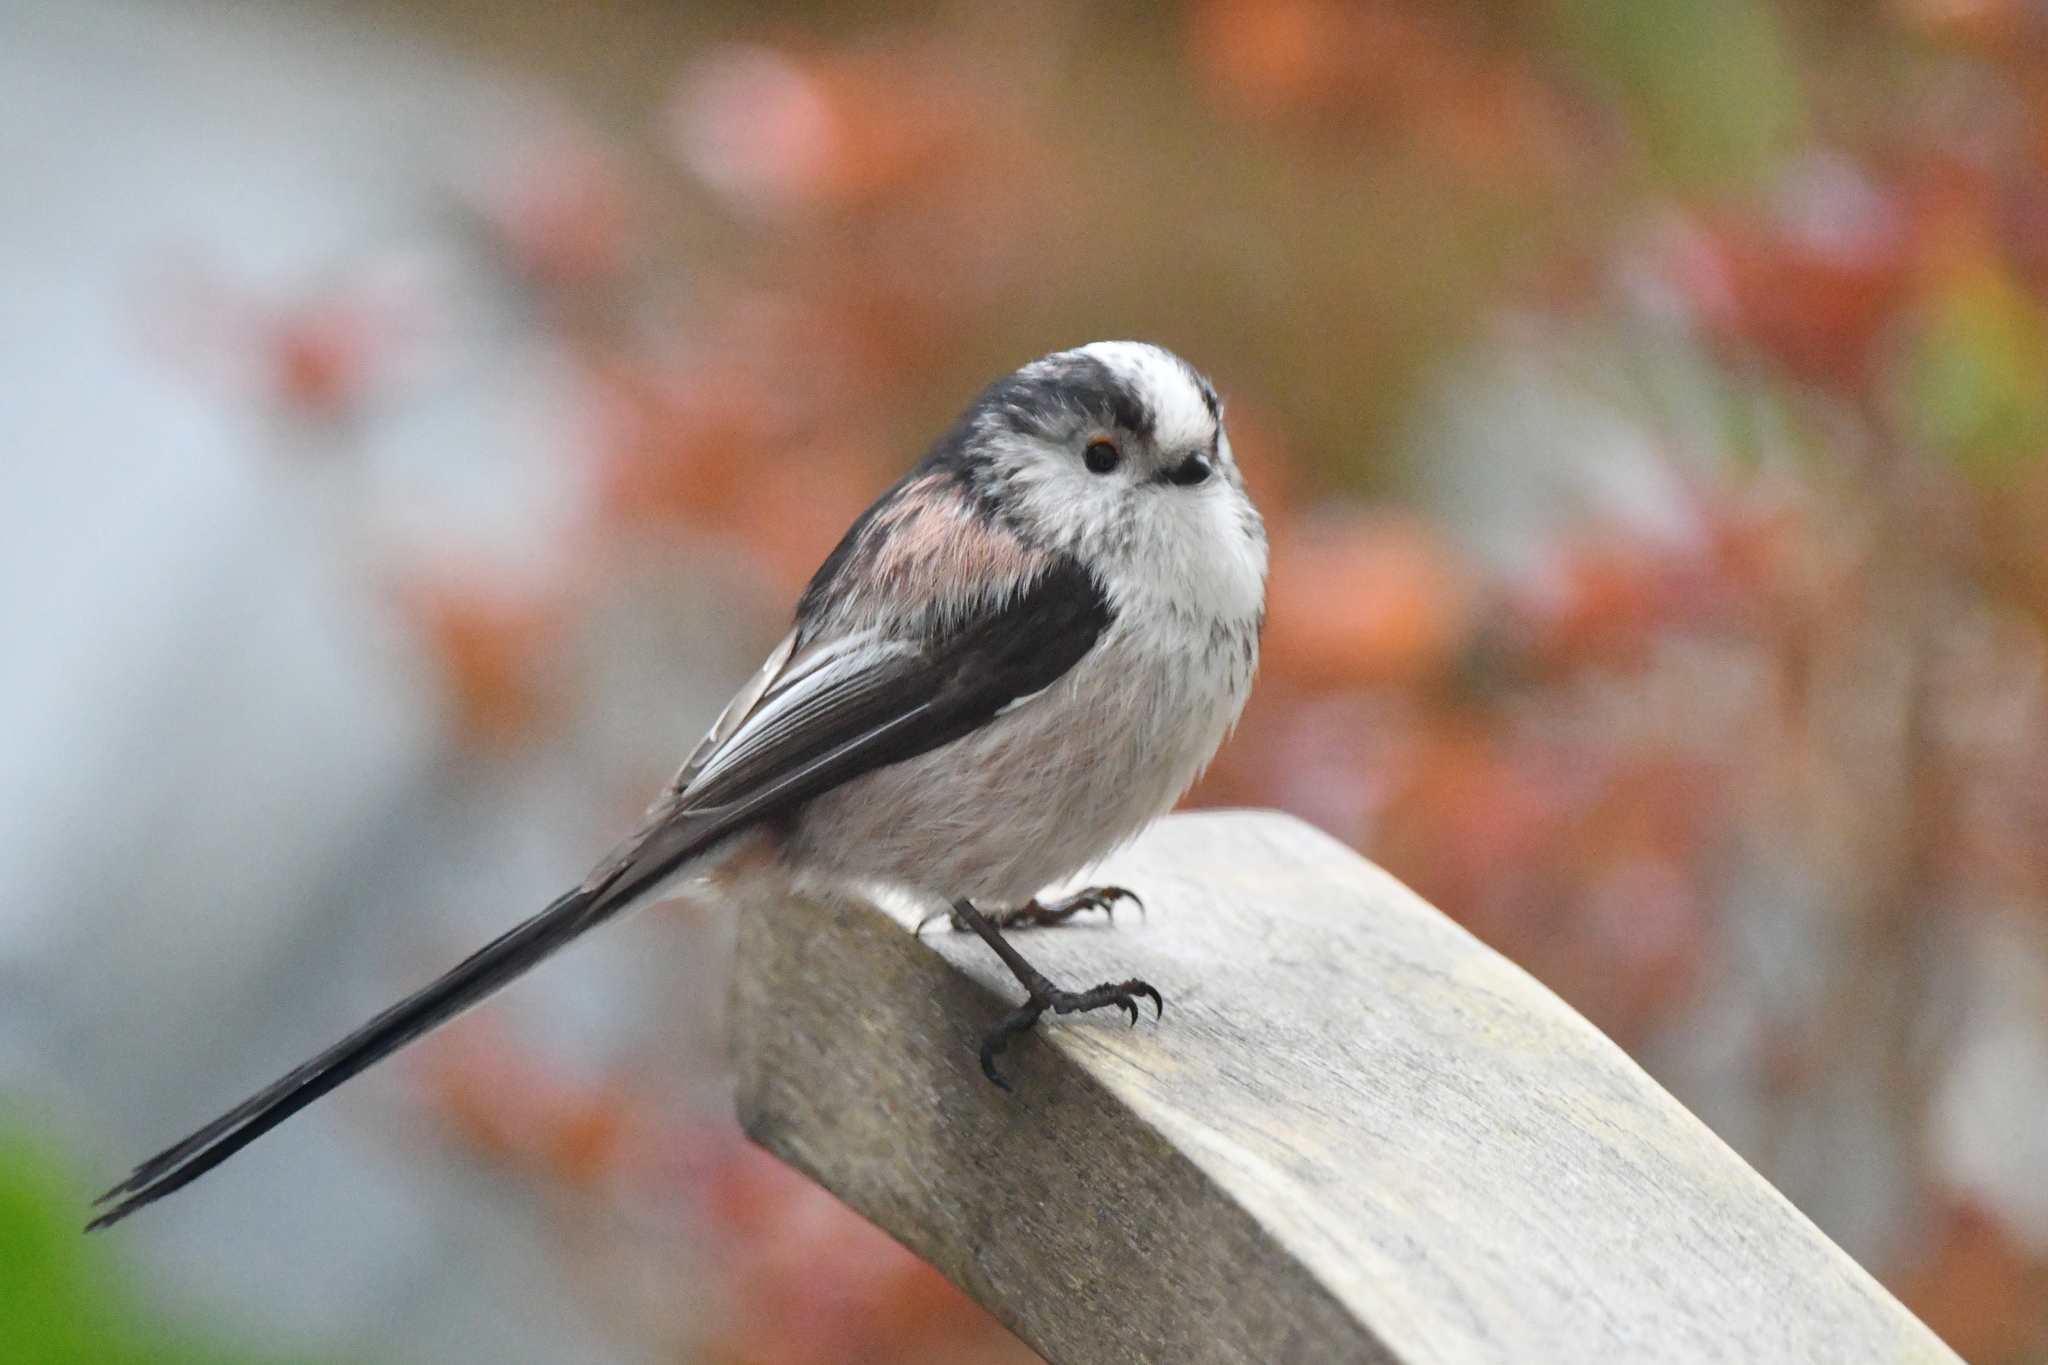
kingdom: Animalia
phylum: Chordata
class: Aves
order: Passeriformes
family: Aegithalidae
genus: Aegithalos
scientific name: Aegithalos caudatus
